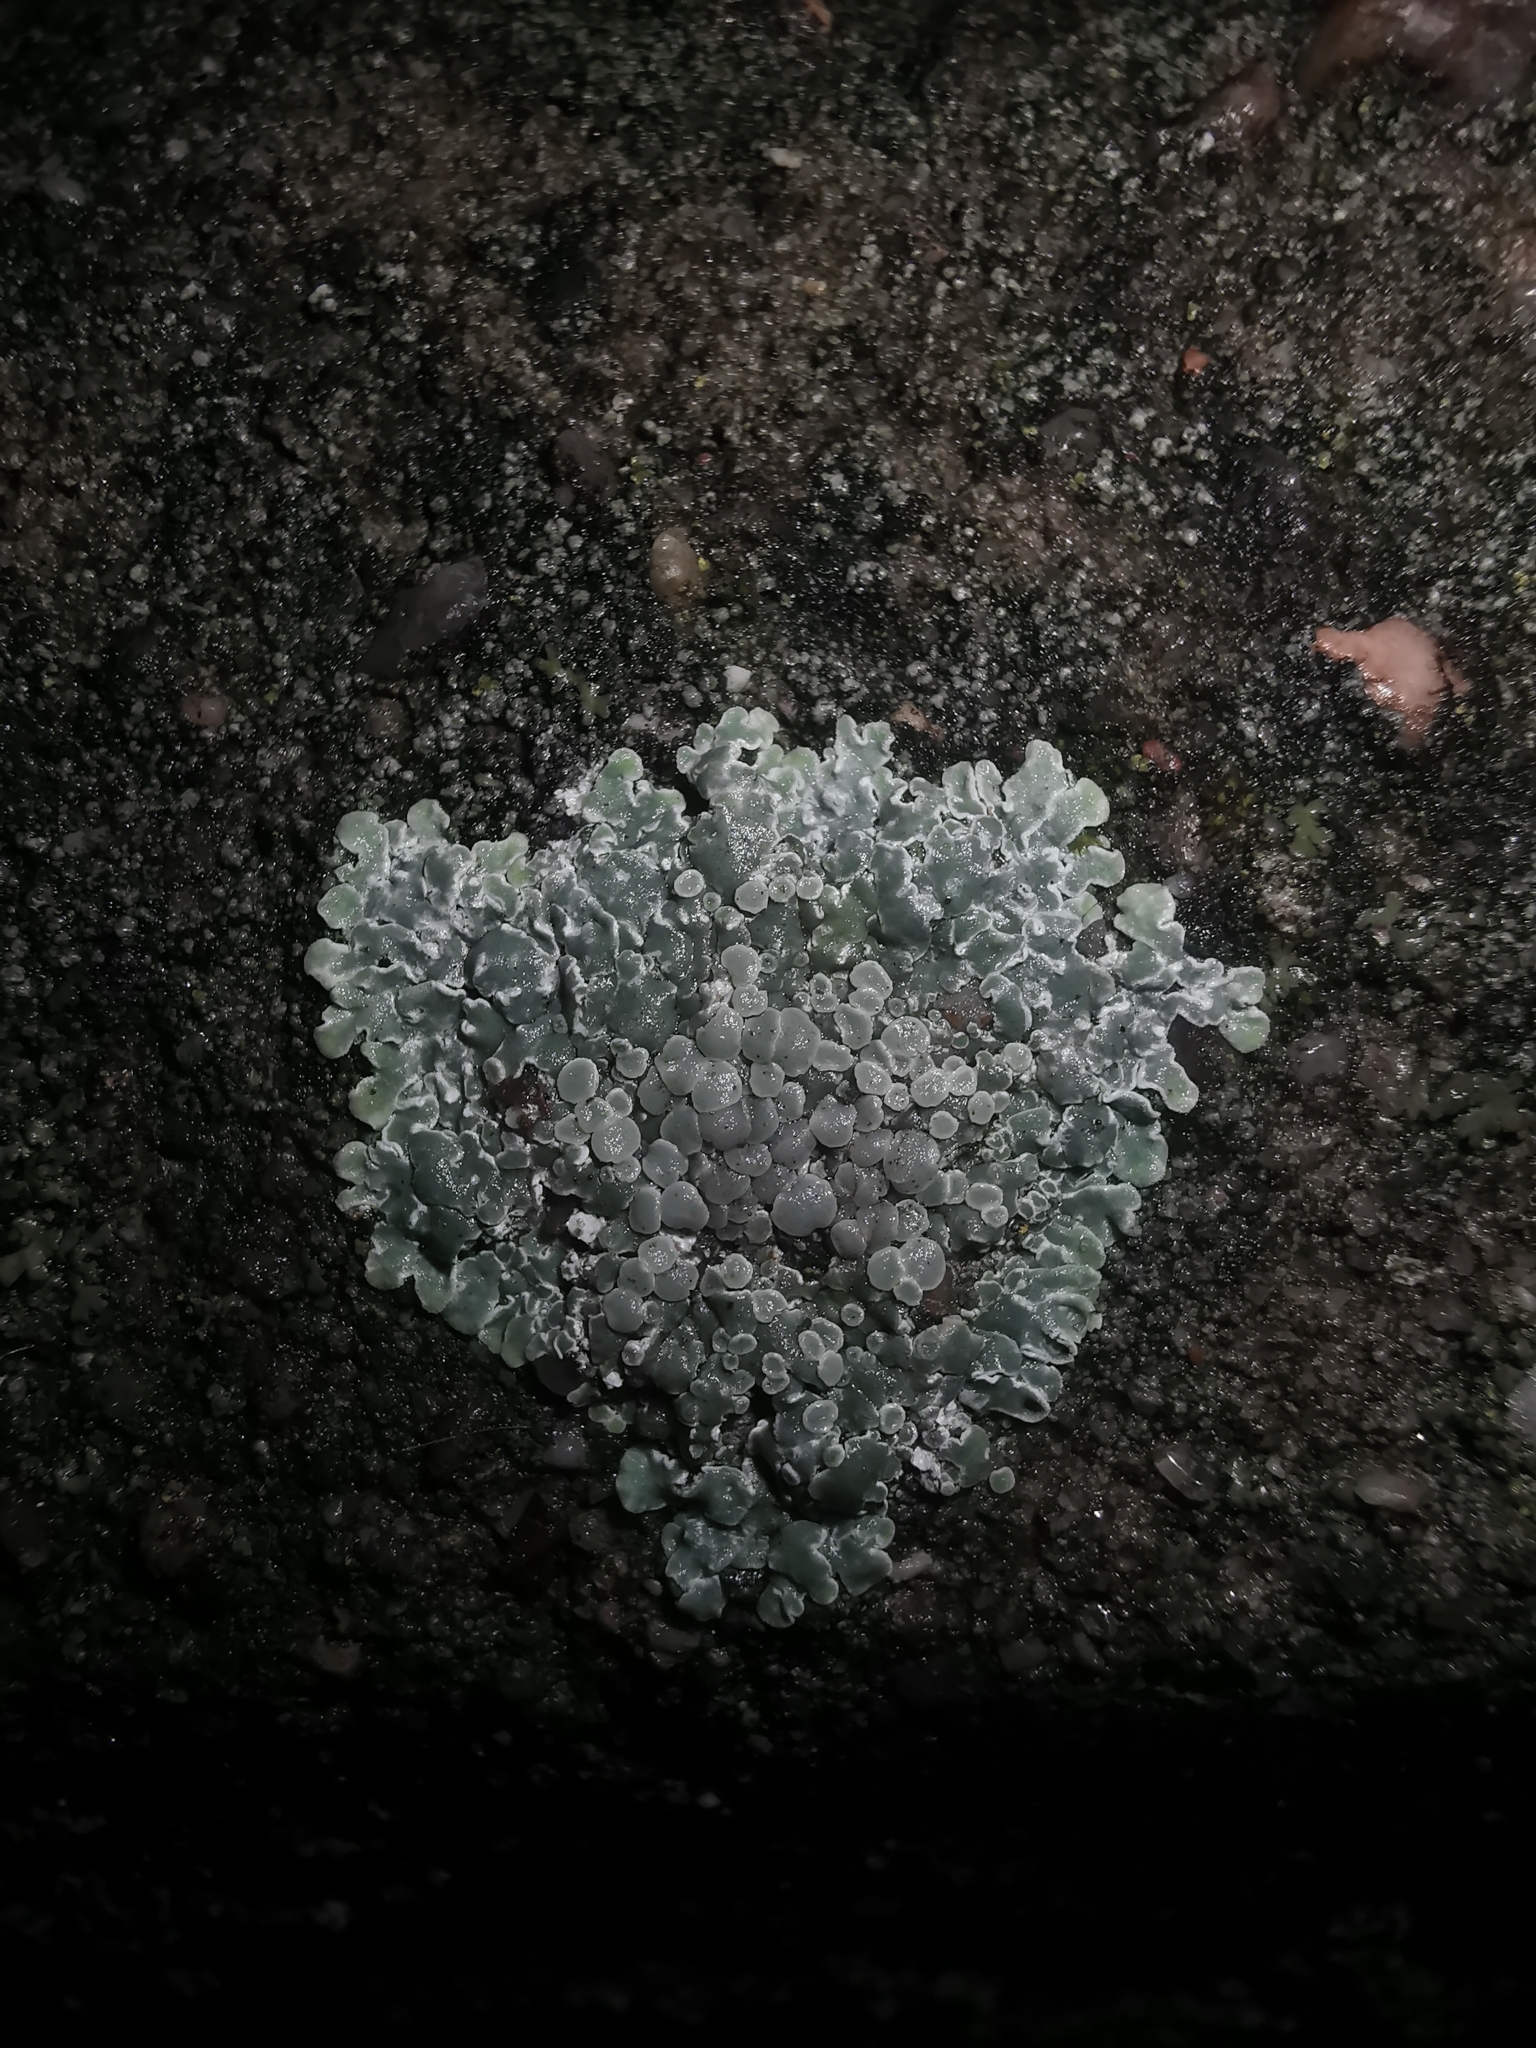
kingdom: Fungi
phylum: Ascomycota
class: Lecanoromycetes
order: Lecanorales
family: Lecanoraceae
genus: Protoparmeliopsis
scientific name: Protoparmeliopsis muralis
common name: Stonewall rim lichen
